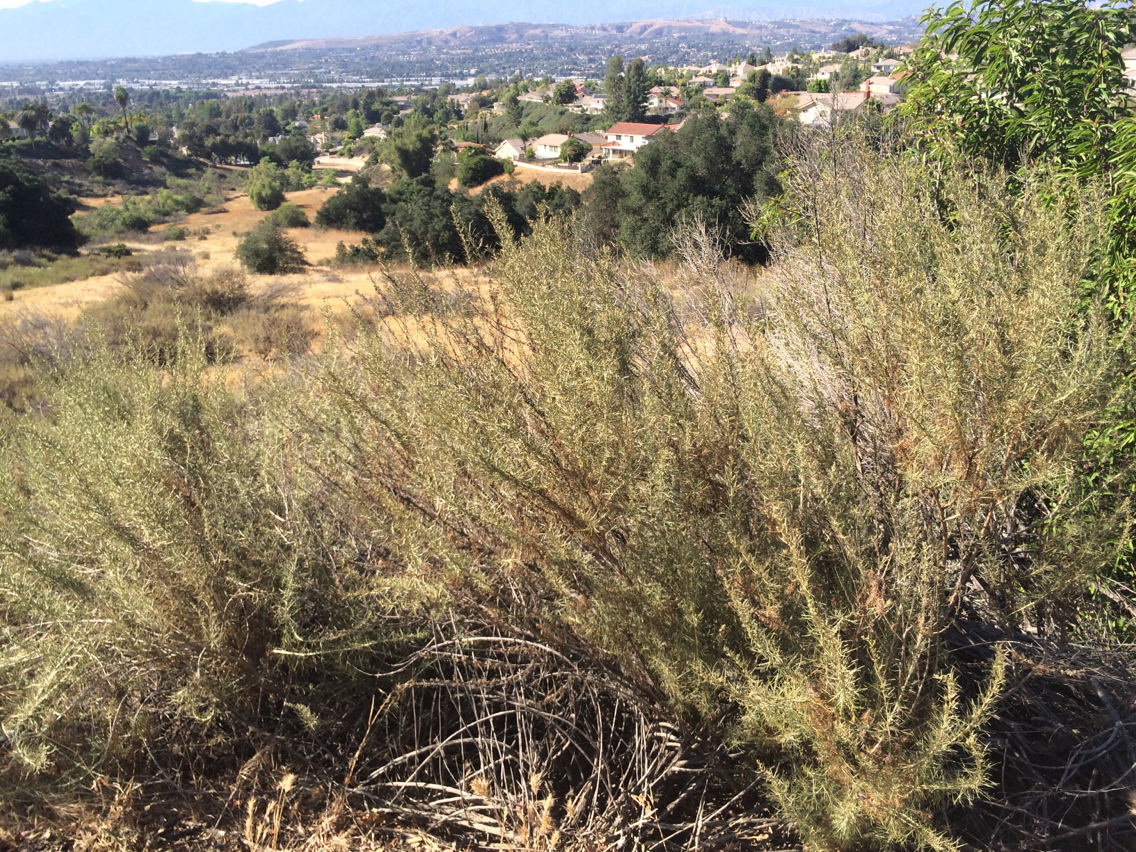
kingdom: Plantae
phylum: Tracheophyta
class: Magnoliopsida
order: Asterales
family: Asteraceae
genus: Artemisia
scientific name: Artemisia californica
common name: California sagebrush
